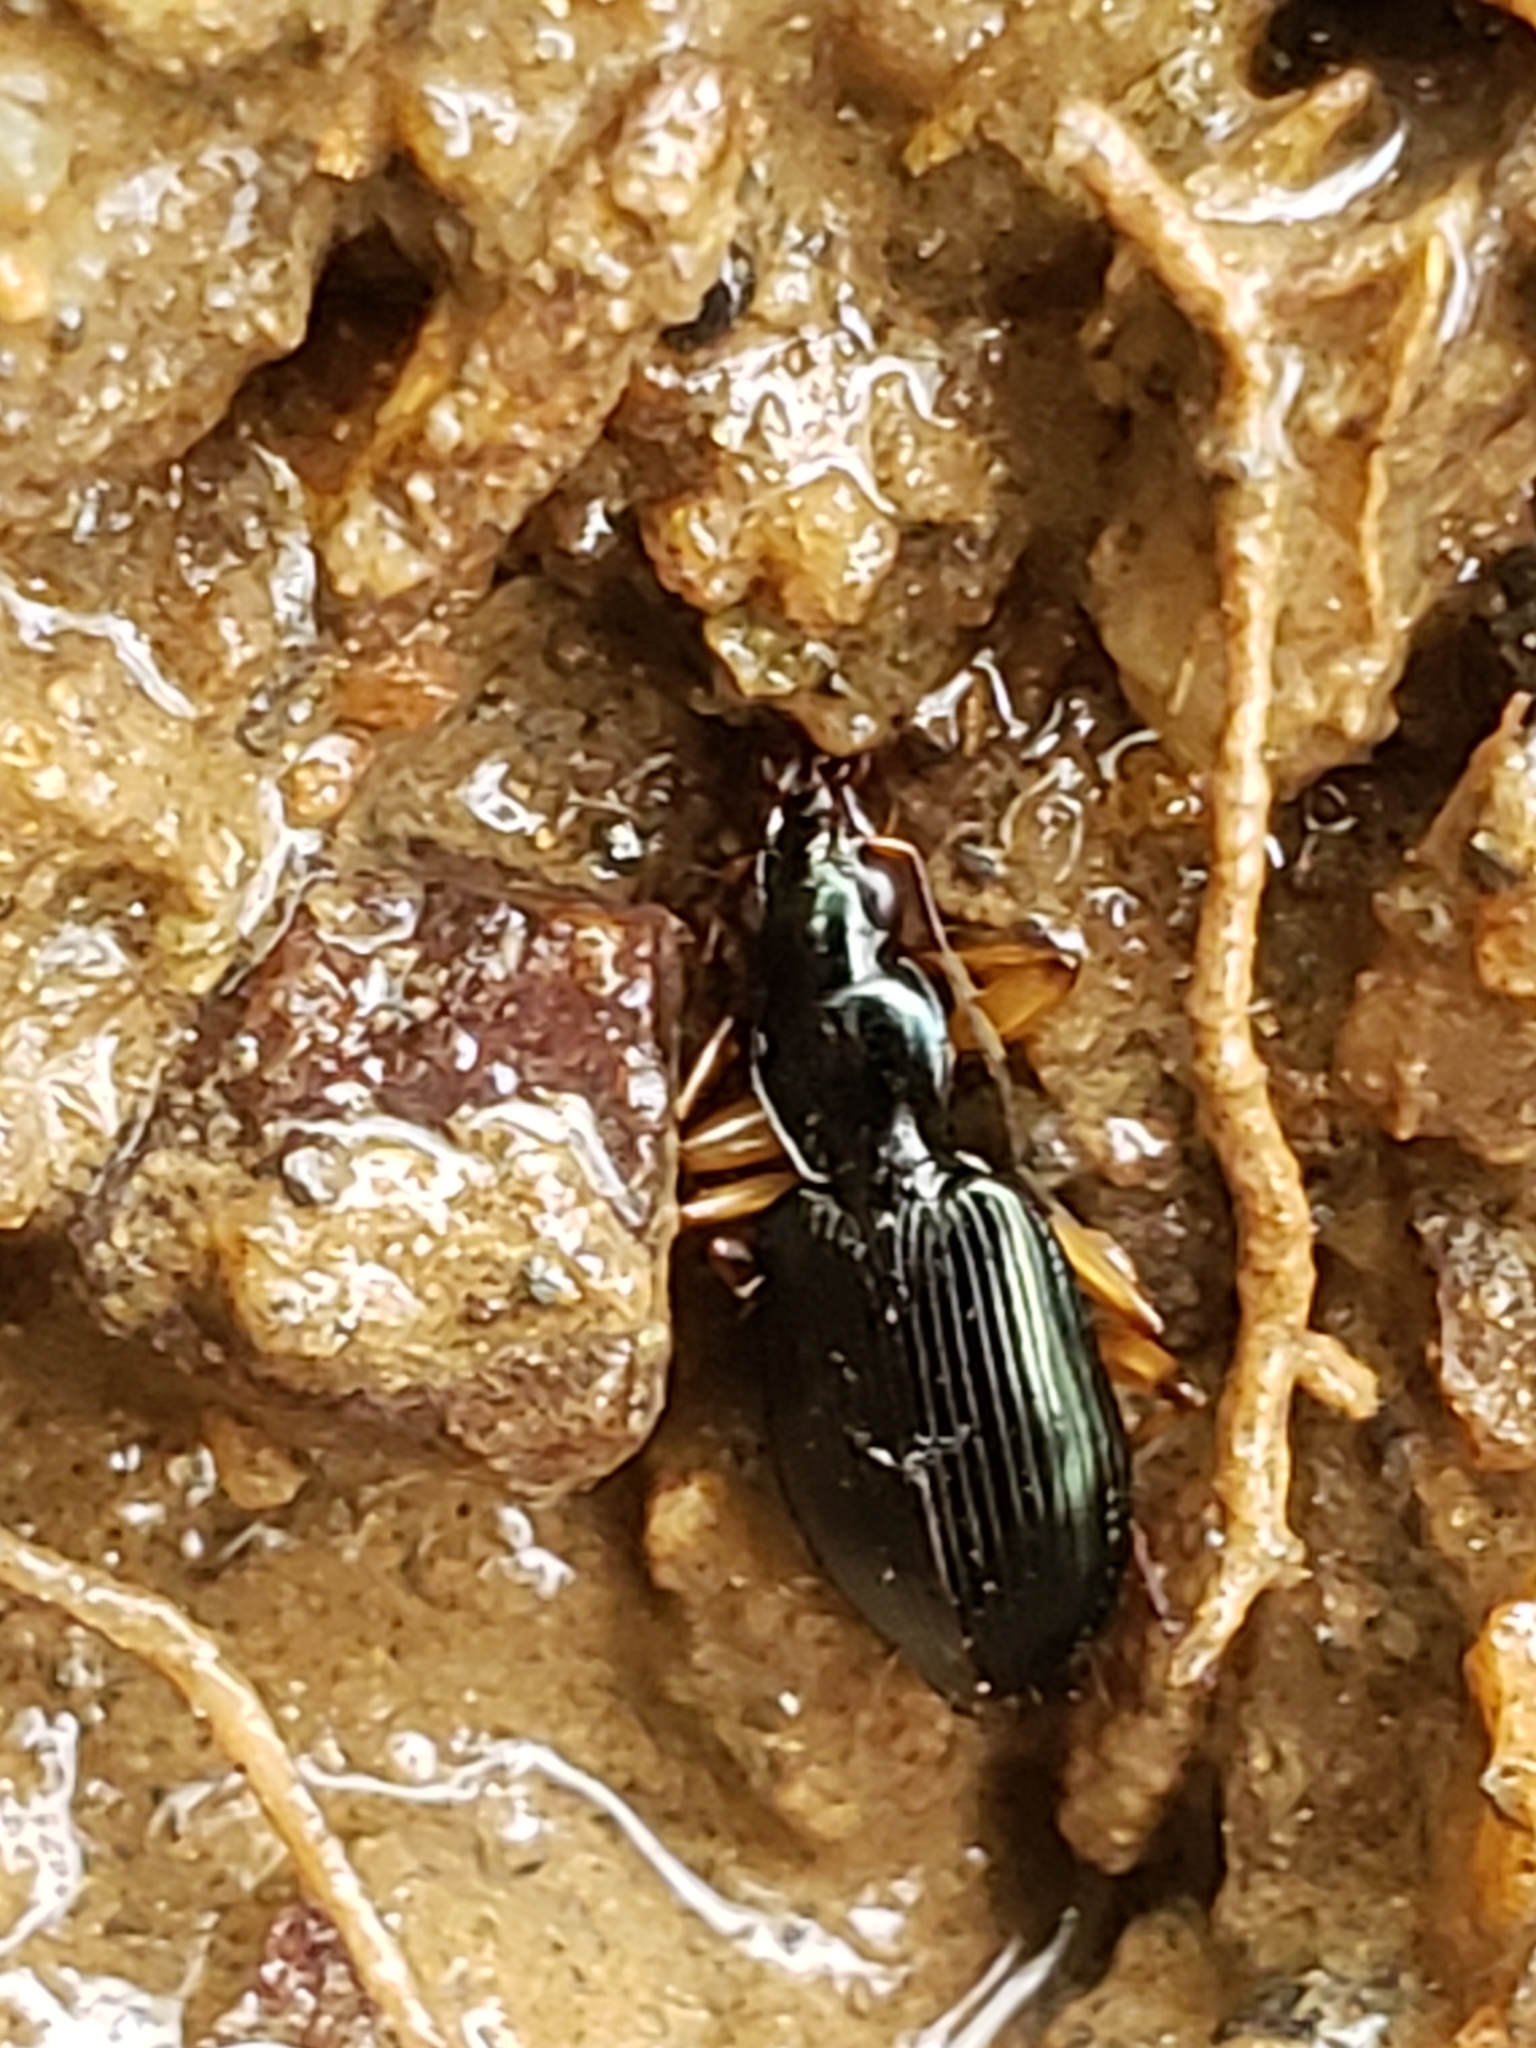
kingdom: Animalia
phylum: Arthropoda
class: Insecta
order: Coleoptera
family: Carabidae
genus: Agonum
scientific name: Agonum extensicolle
